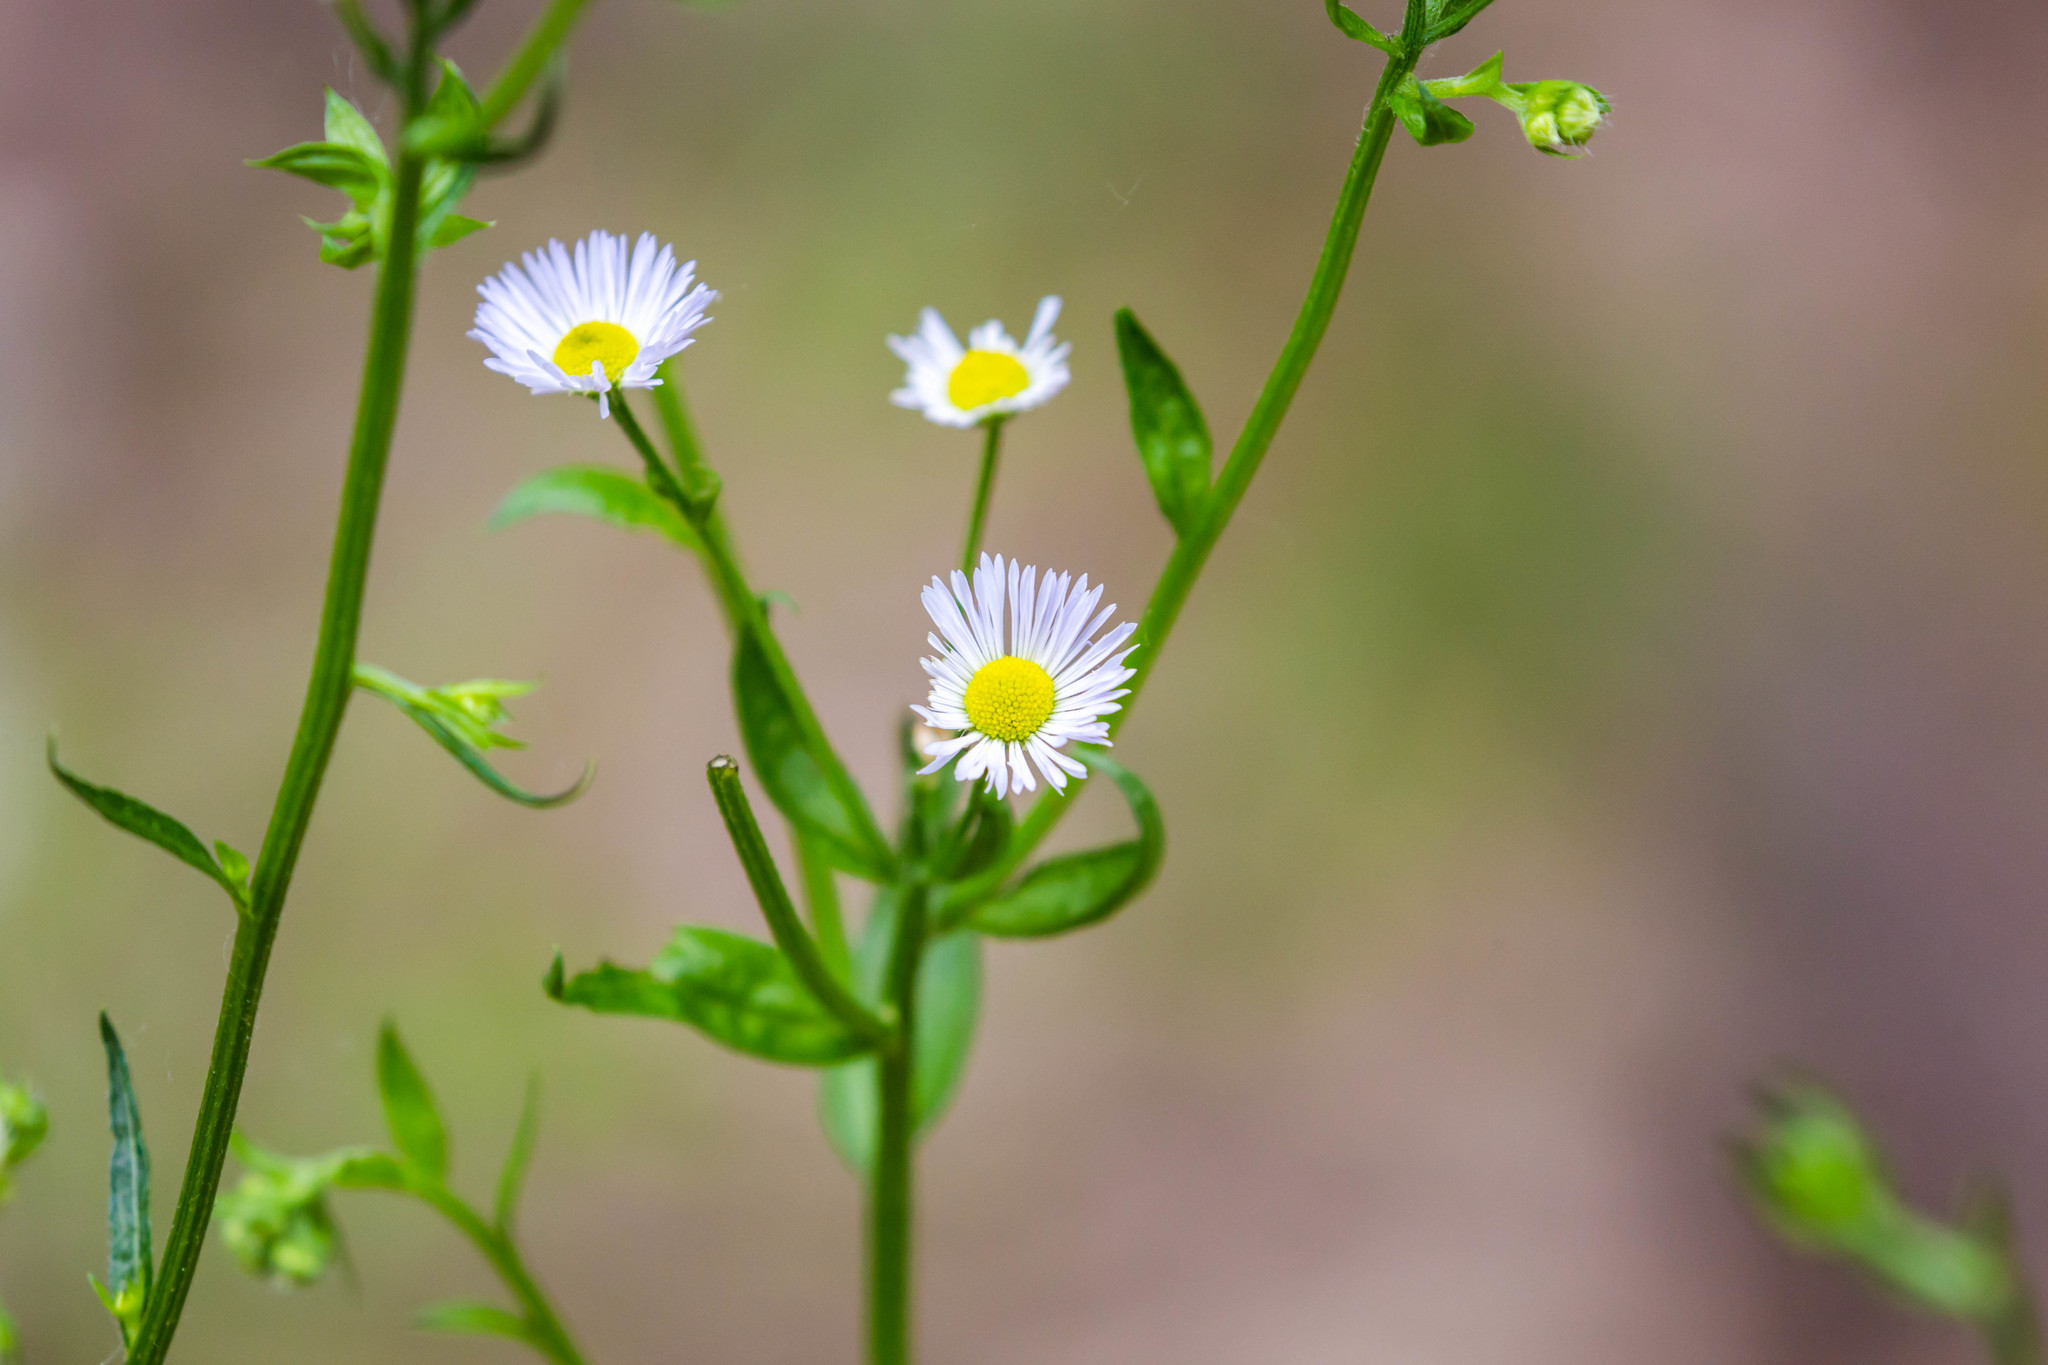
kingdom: Plantae
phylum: Tracheophyta
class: Magnoliopsida
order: Asterales
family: Asteraceae
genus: Erigeron
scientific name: Erigeron strigosus
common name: Common eastern fleabane
